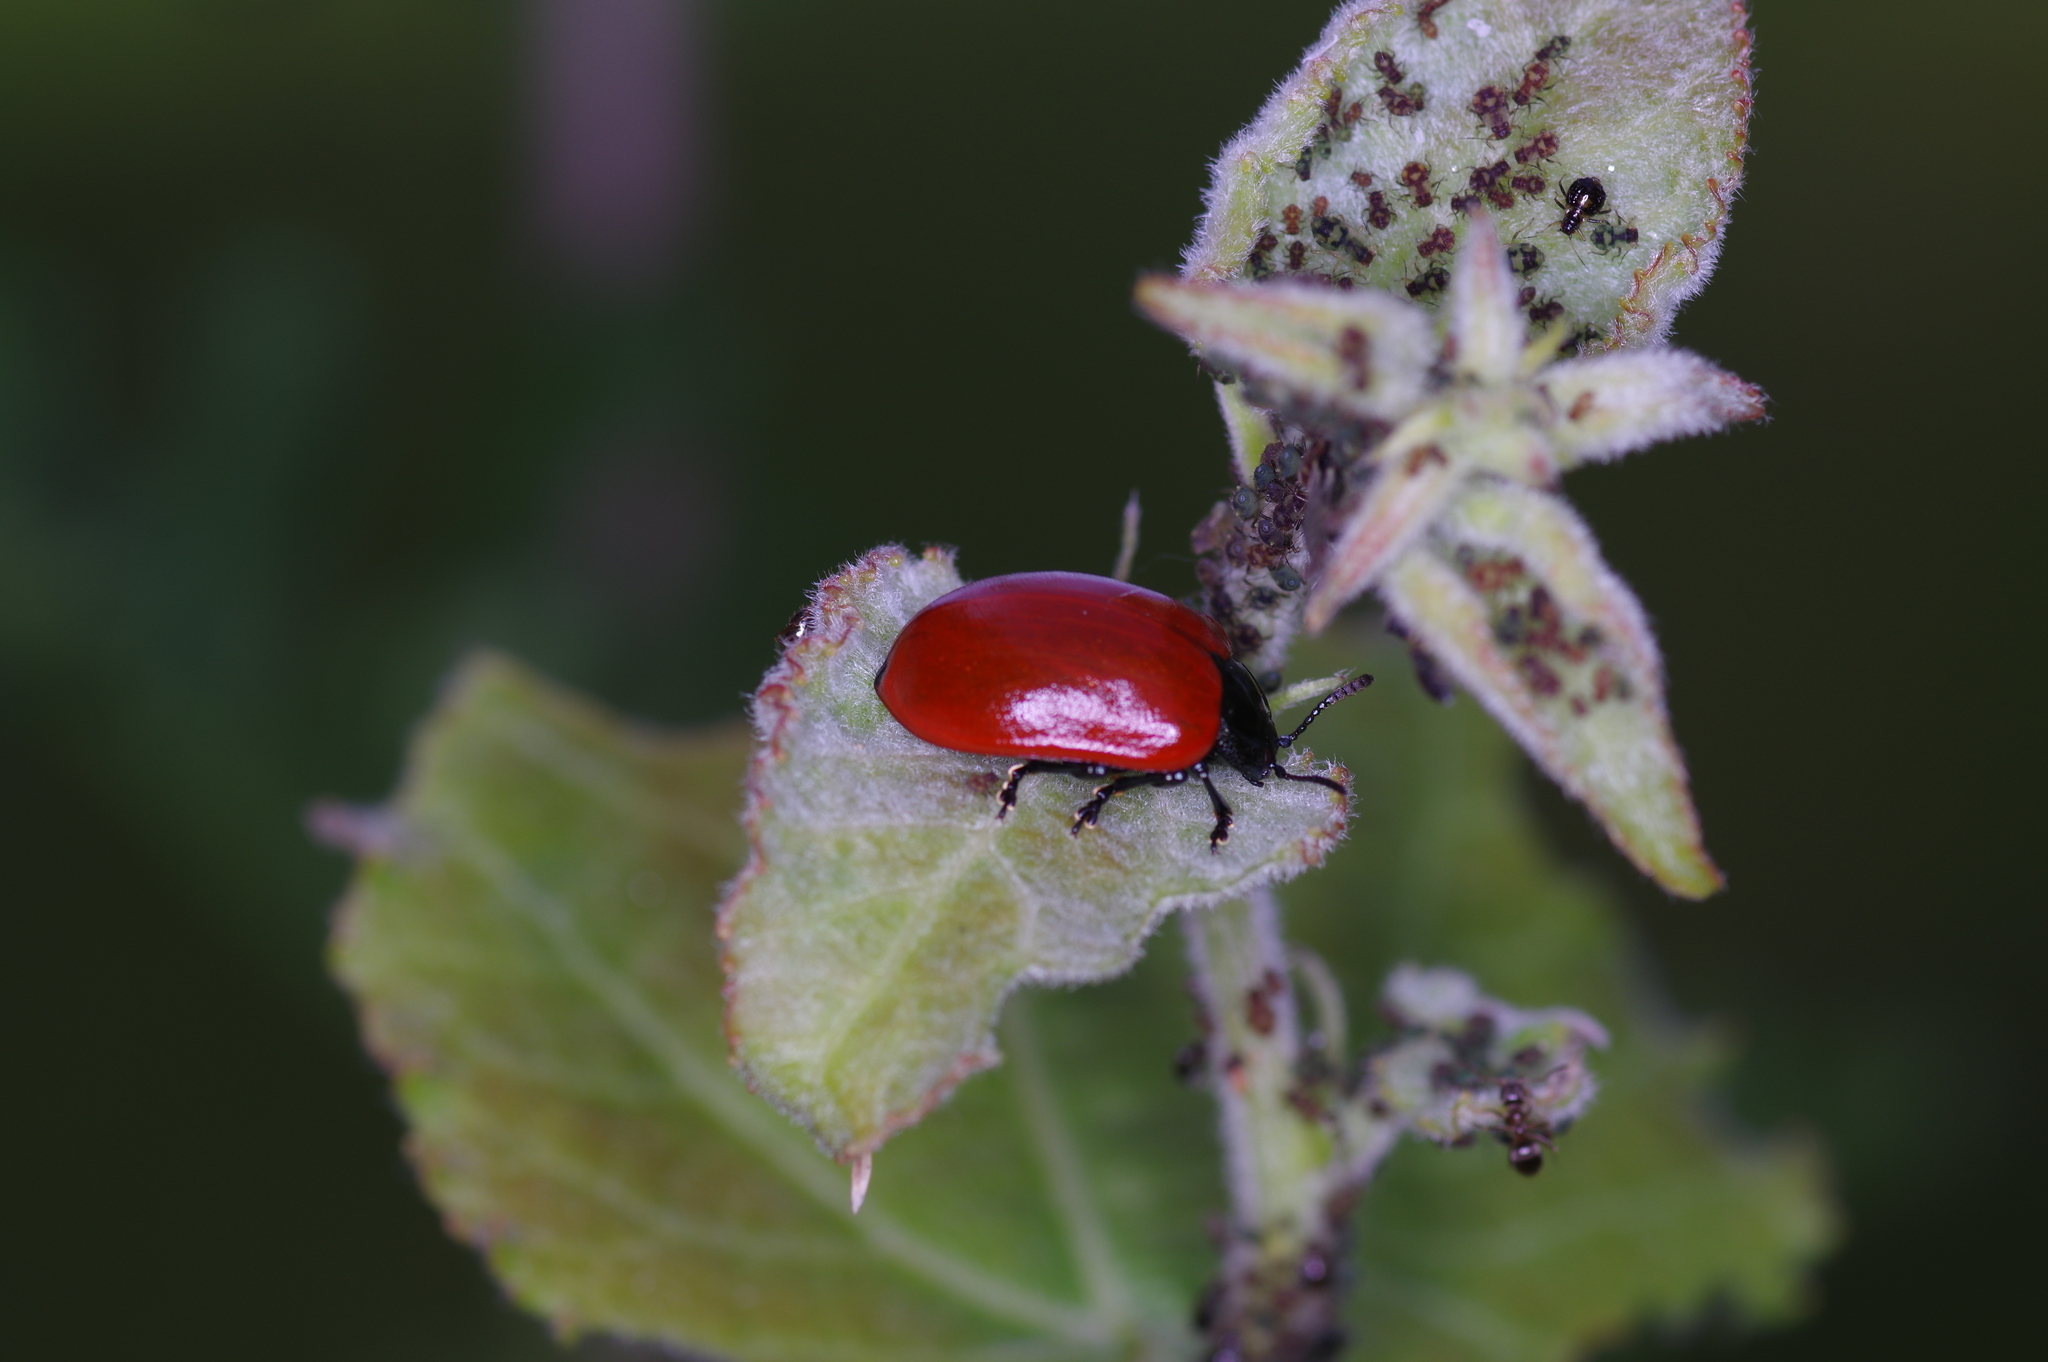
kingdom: Animalia
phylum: Arthropoda
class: Insecta
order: Coleoptera
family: Chrysomelidae
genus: Chrysomela
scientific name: Chrysomela populi
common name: Red poplar leaf beetle
